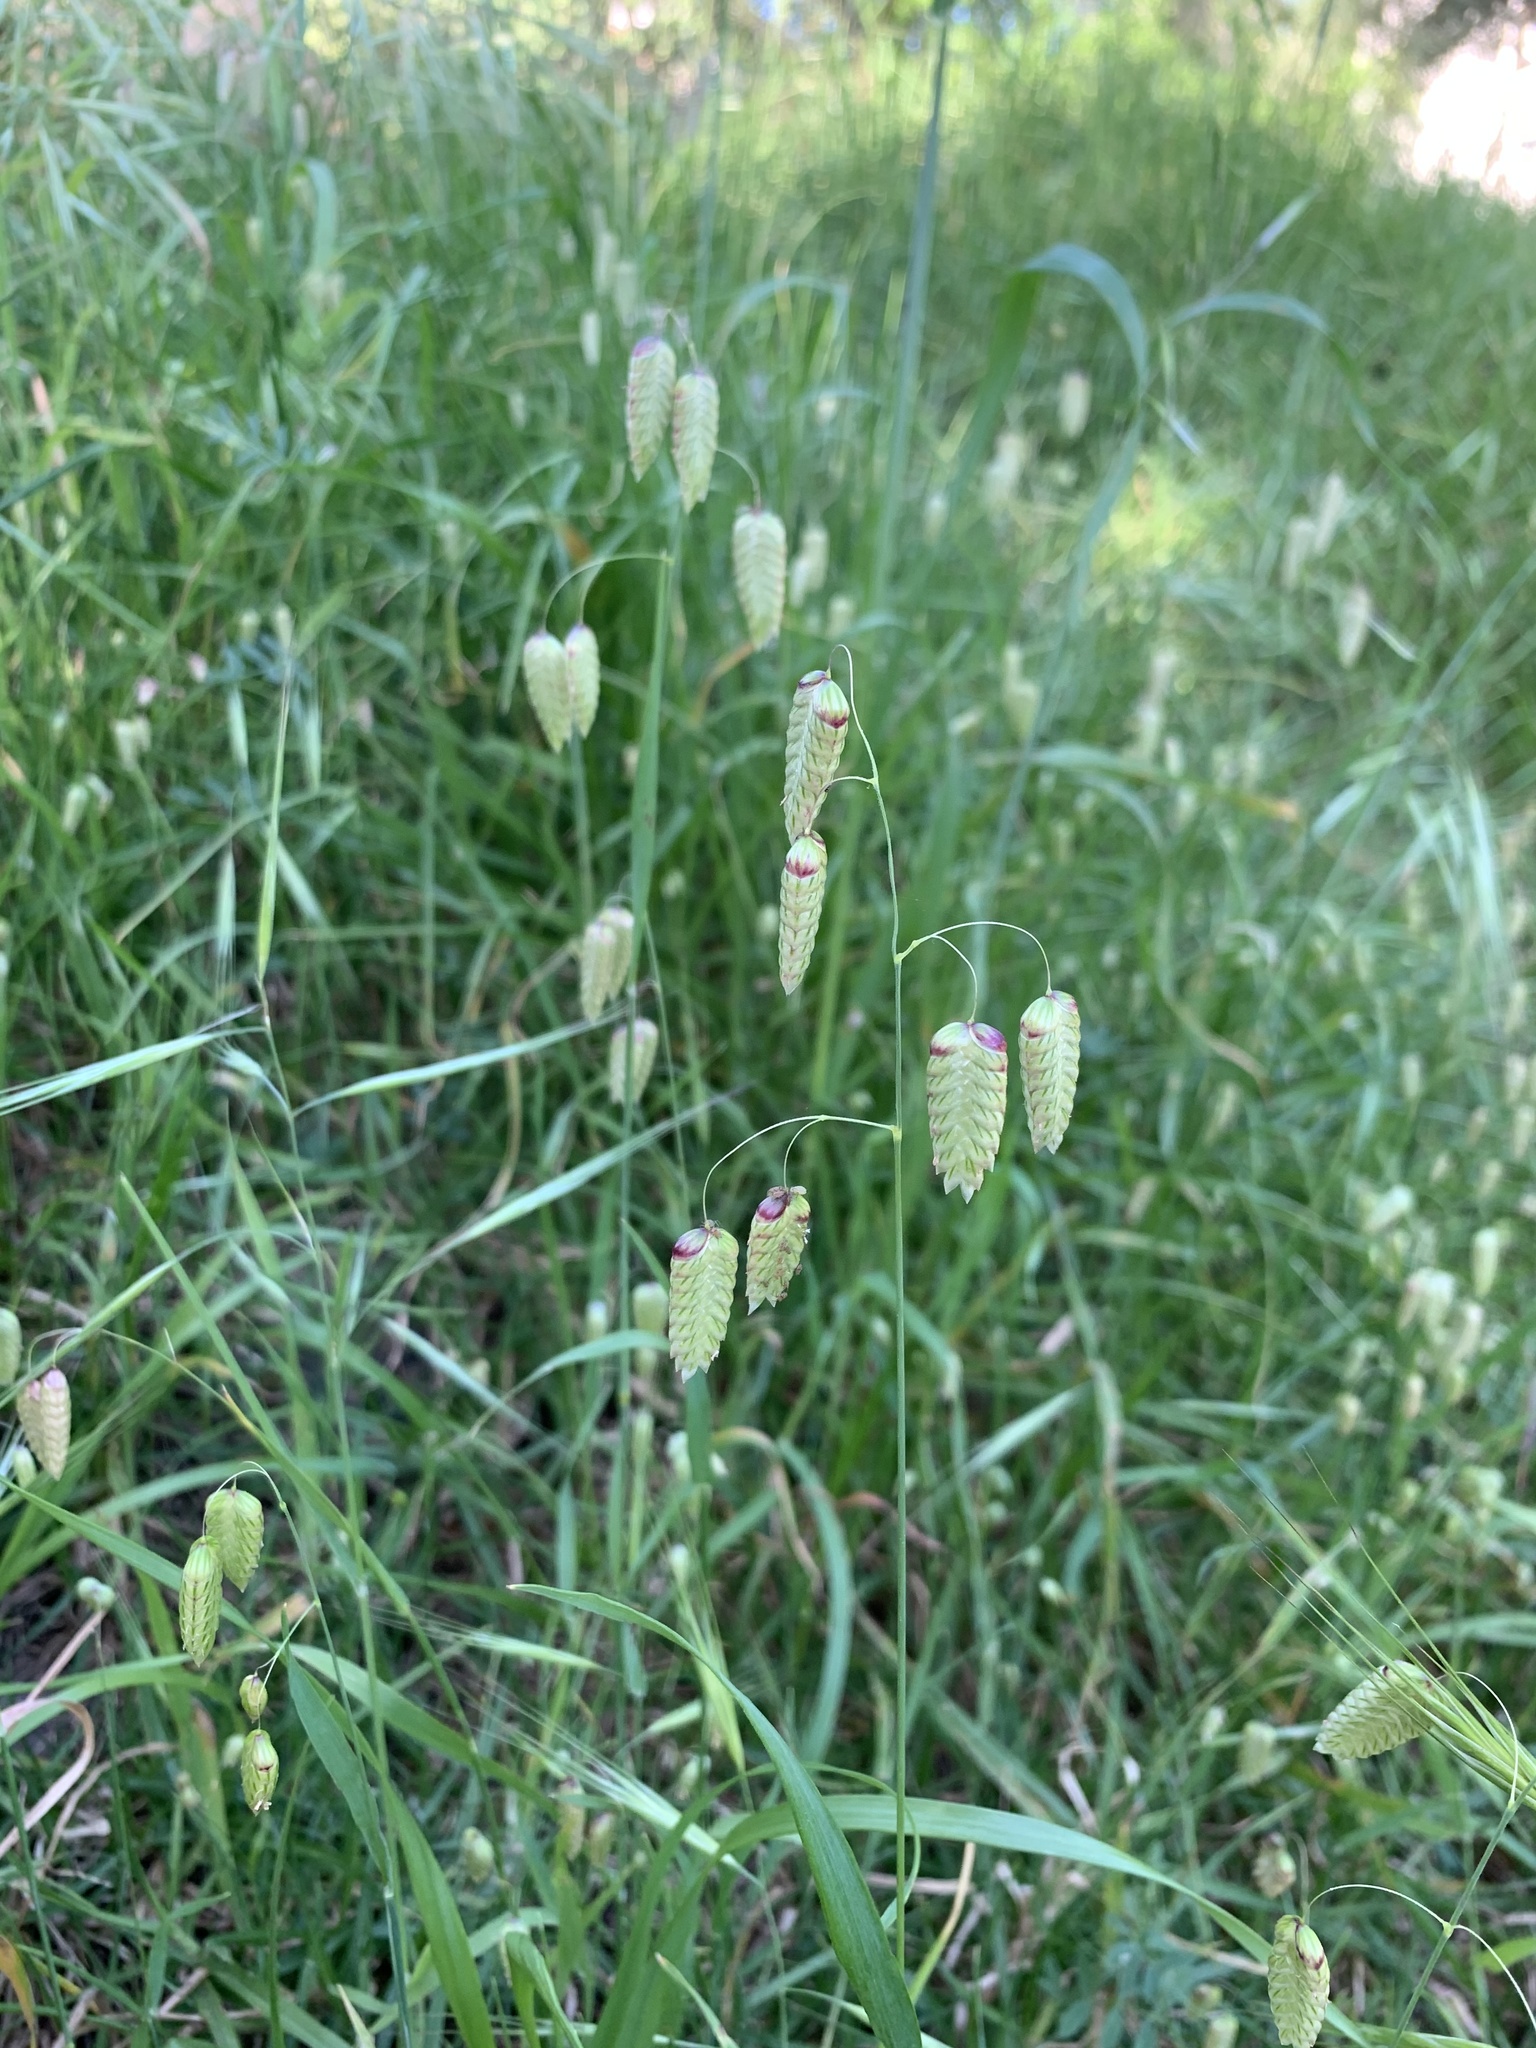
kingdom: Plantae
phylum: Tracheophyta
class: Liliopsida
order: Poales
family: Poaceae
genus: Briza
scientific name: Briza maxima
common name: Big quakinggrass
